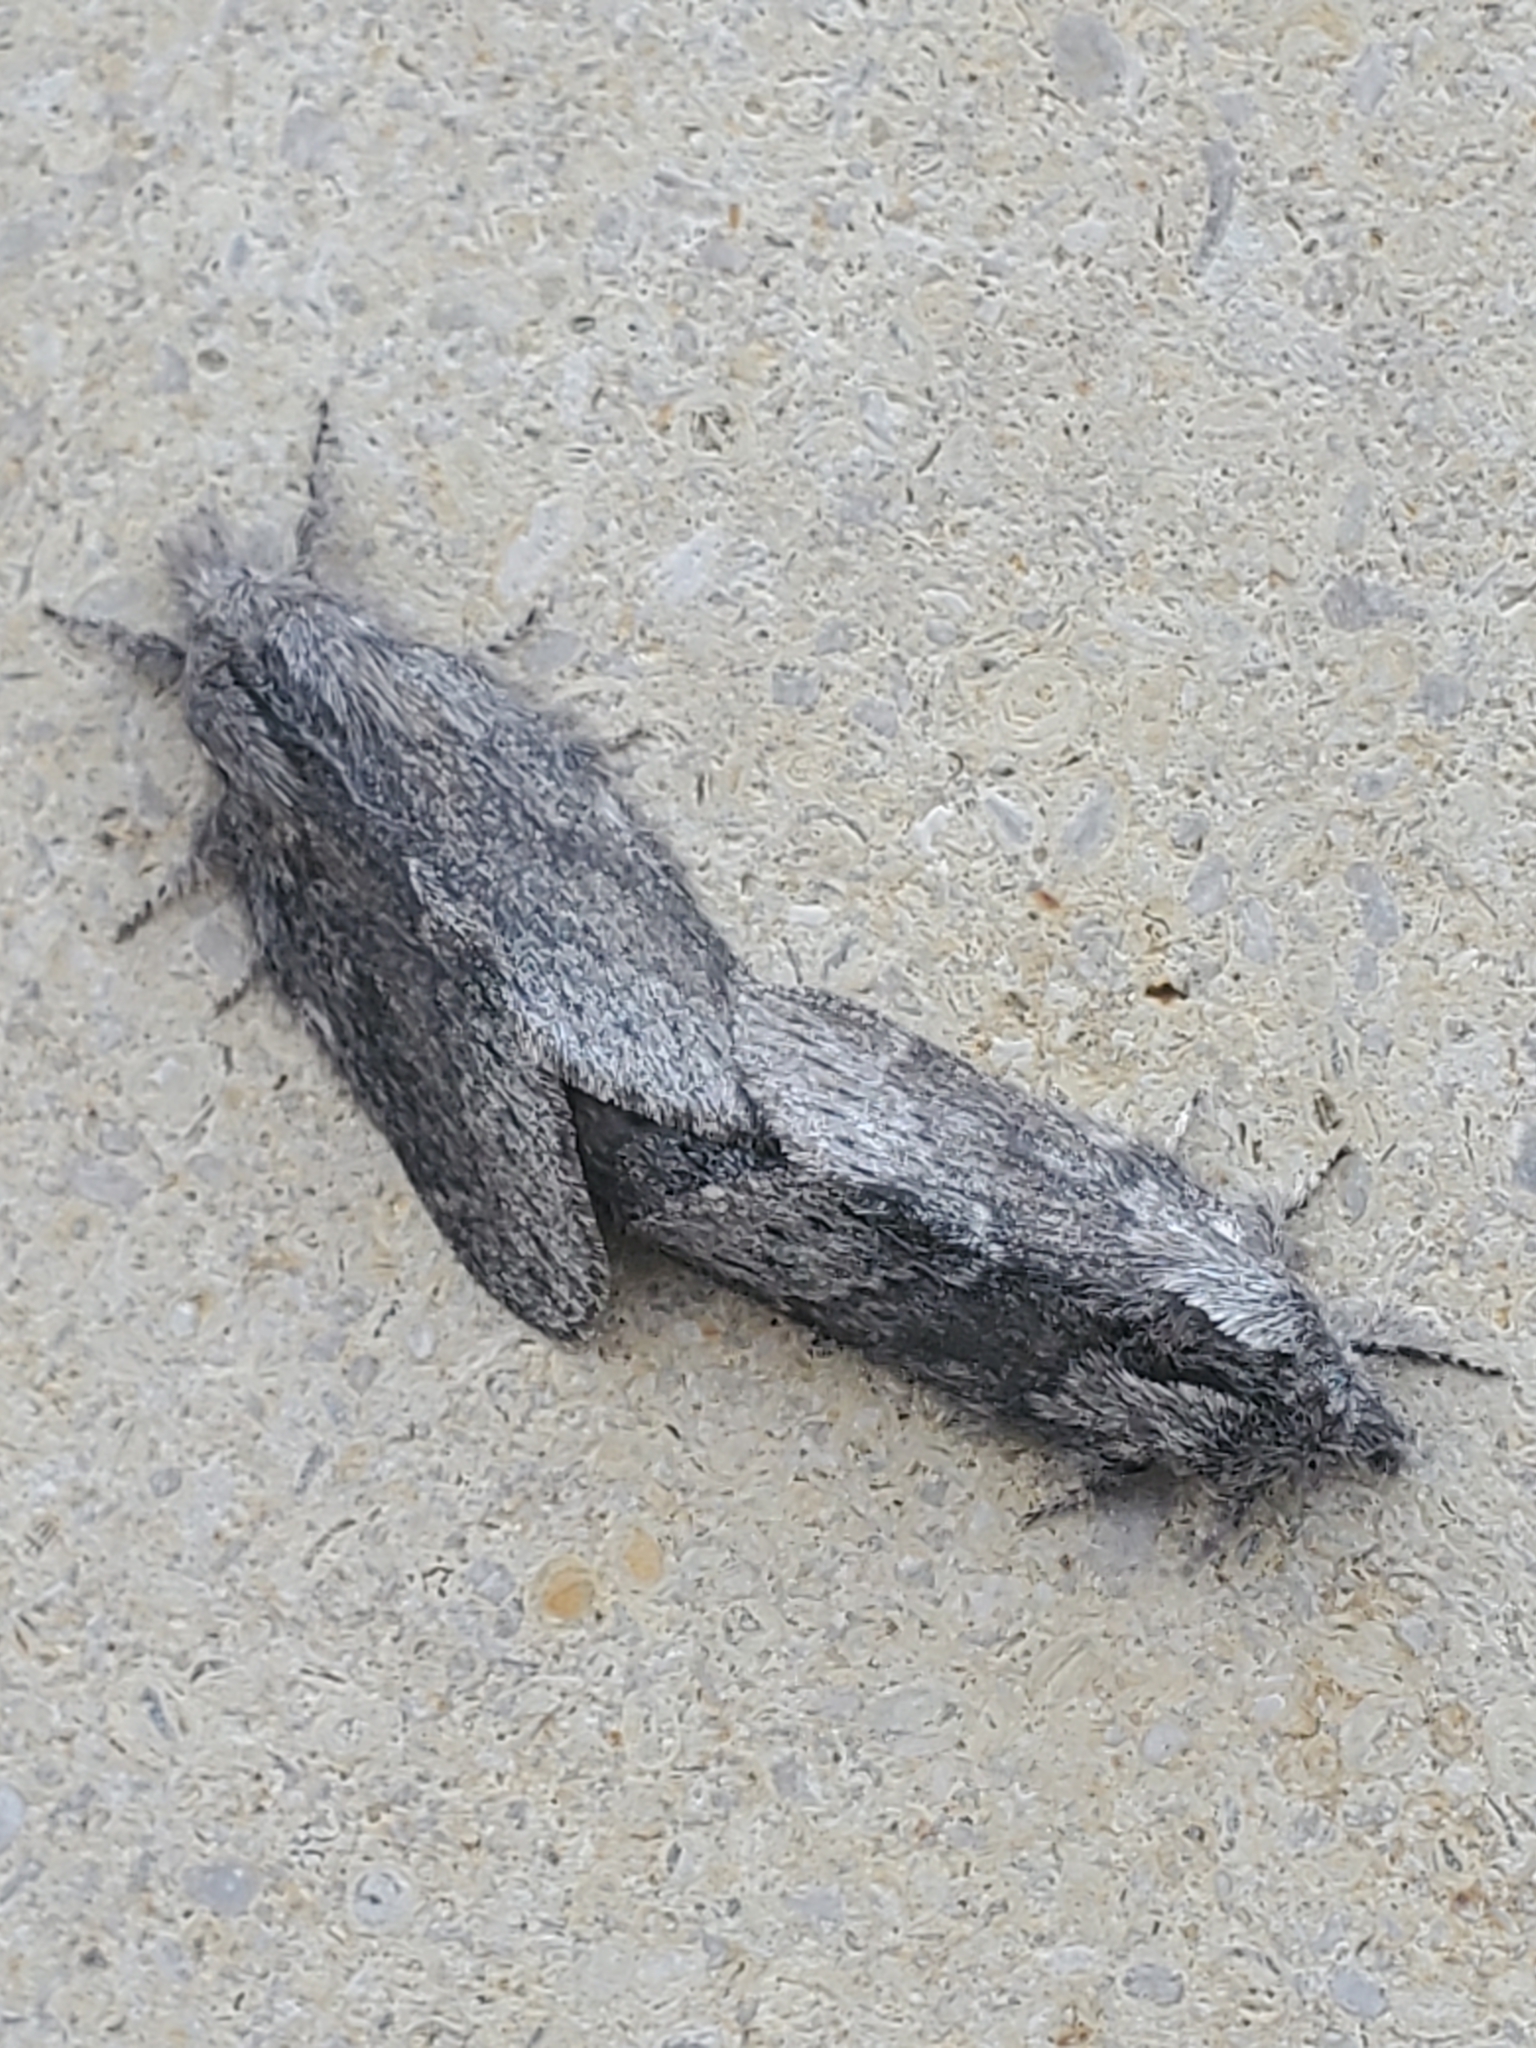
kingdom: Animalia
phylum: Arthropoda
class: Insecta
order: Lepidoptera
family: Lasiocampidae
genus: Heteropacha
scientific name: Heteropacha rileyana
